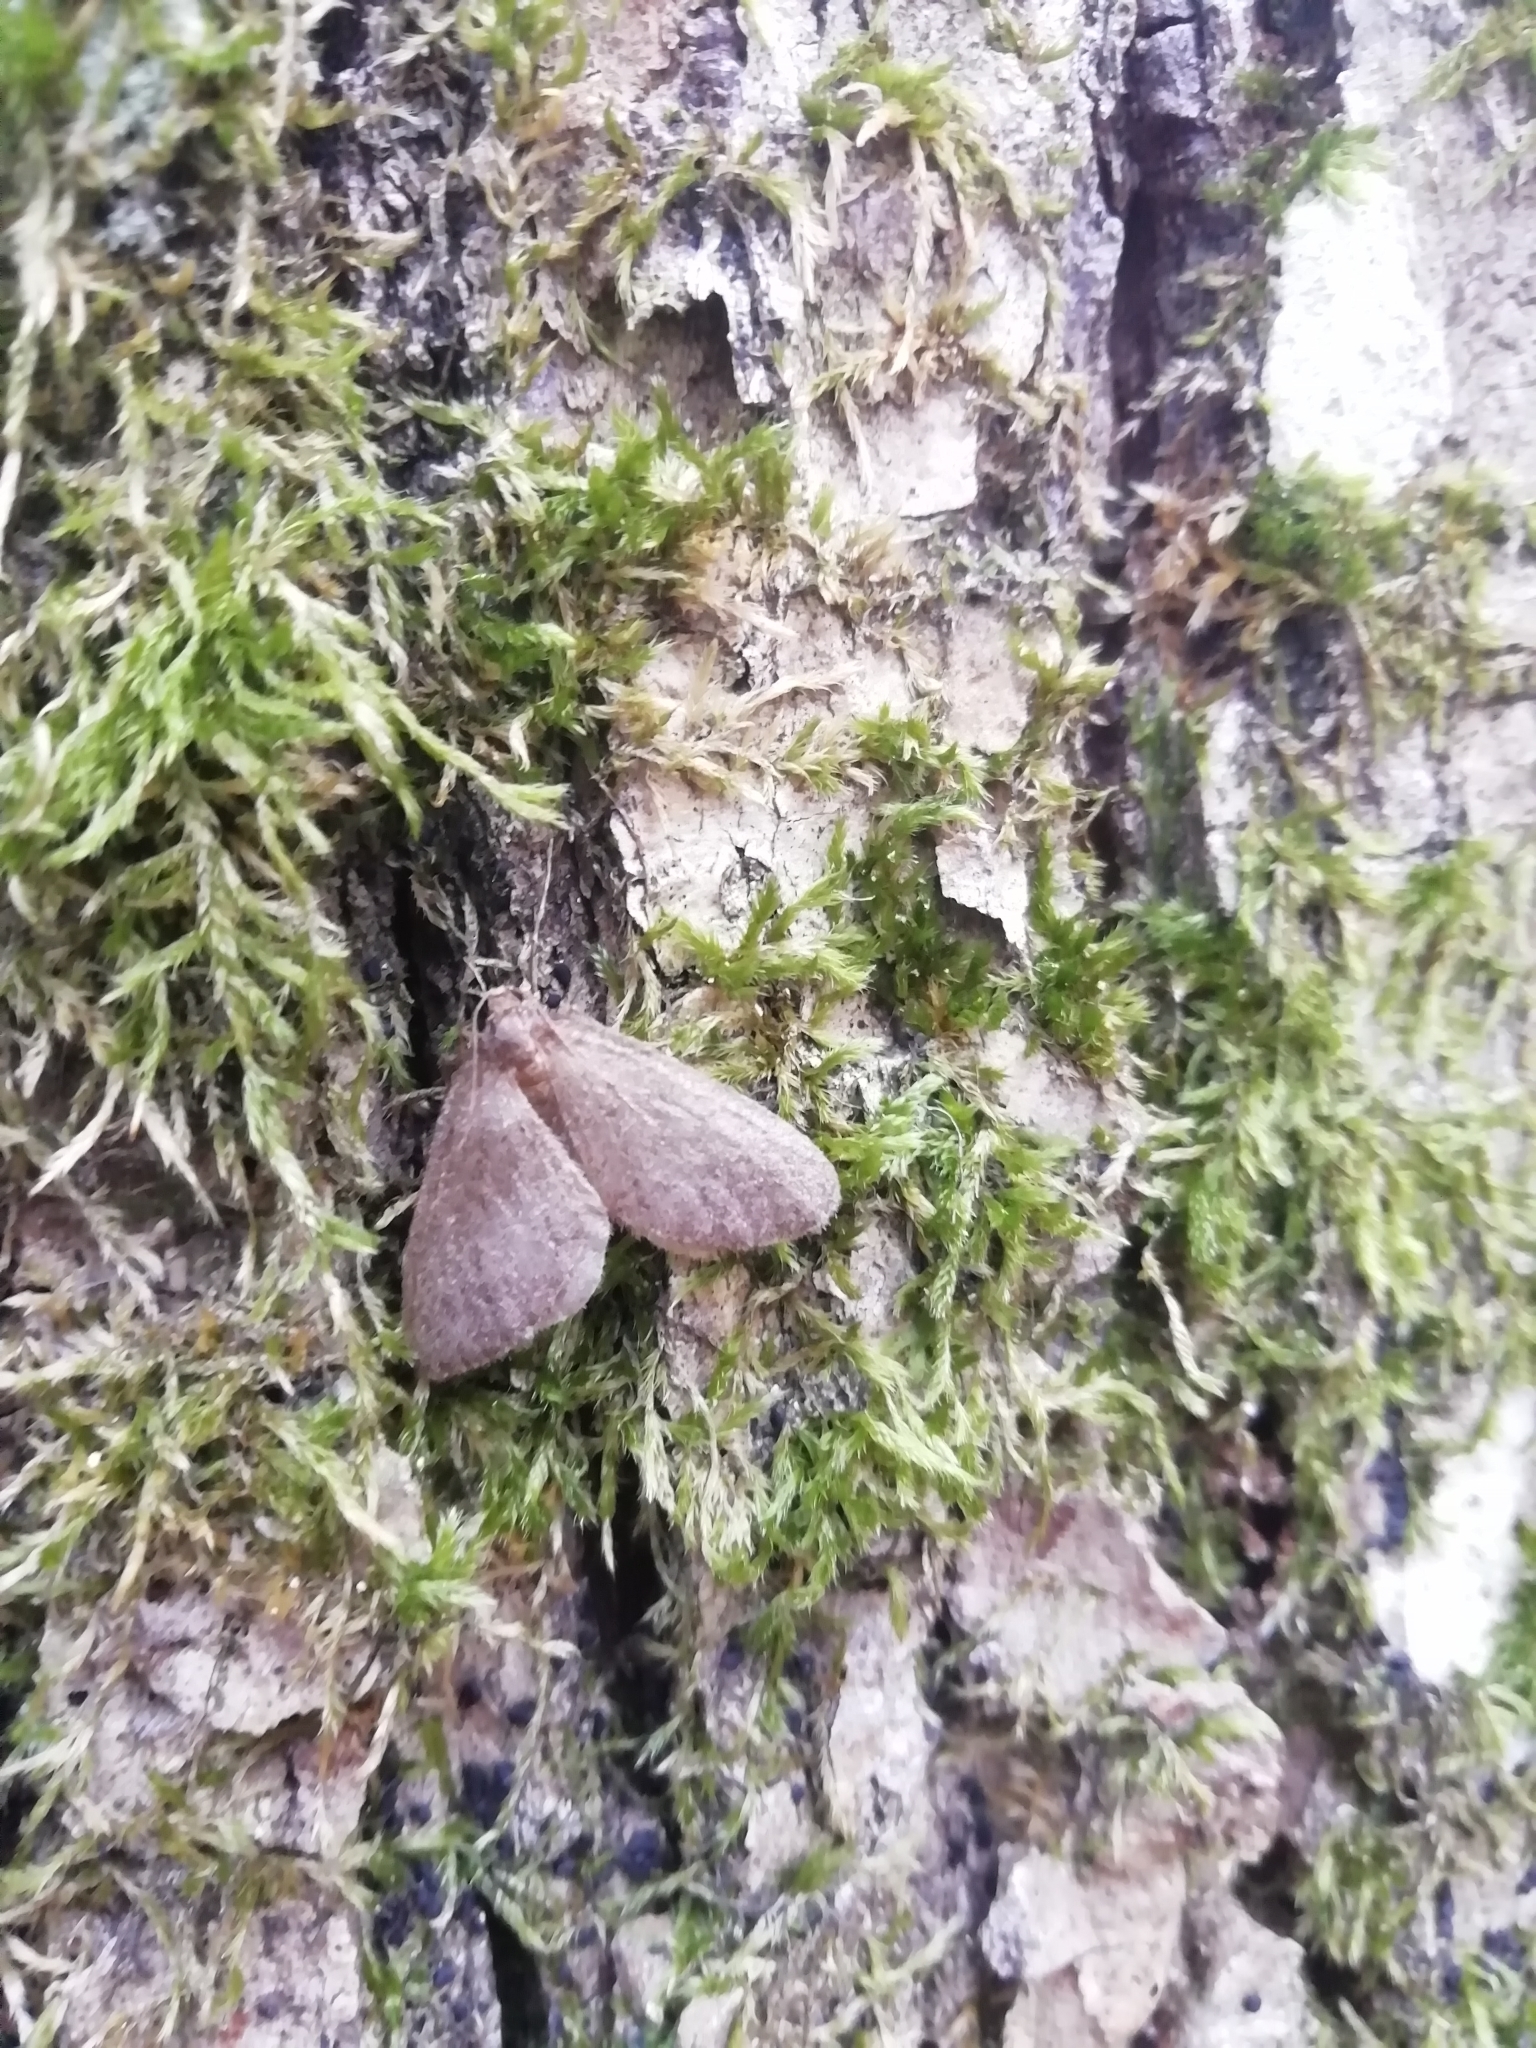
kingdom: Animalia
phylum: Arthropoda
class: Insecta
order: Lepidoptera
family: Geometridae
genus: Operophtera
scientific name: Operophtera brumata
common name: Winter moth
